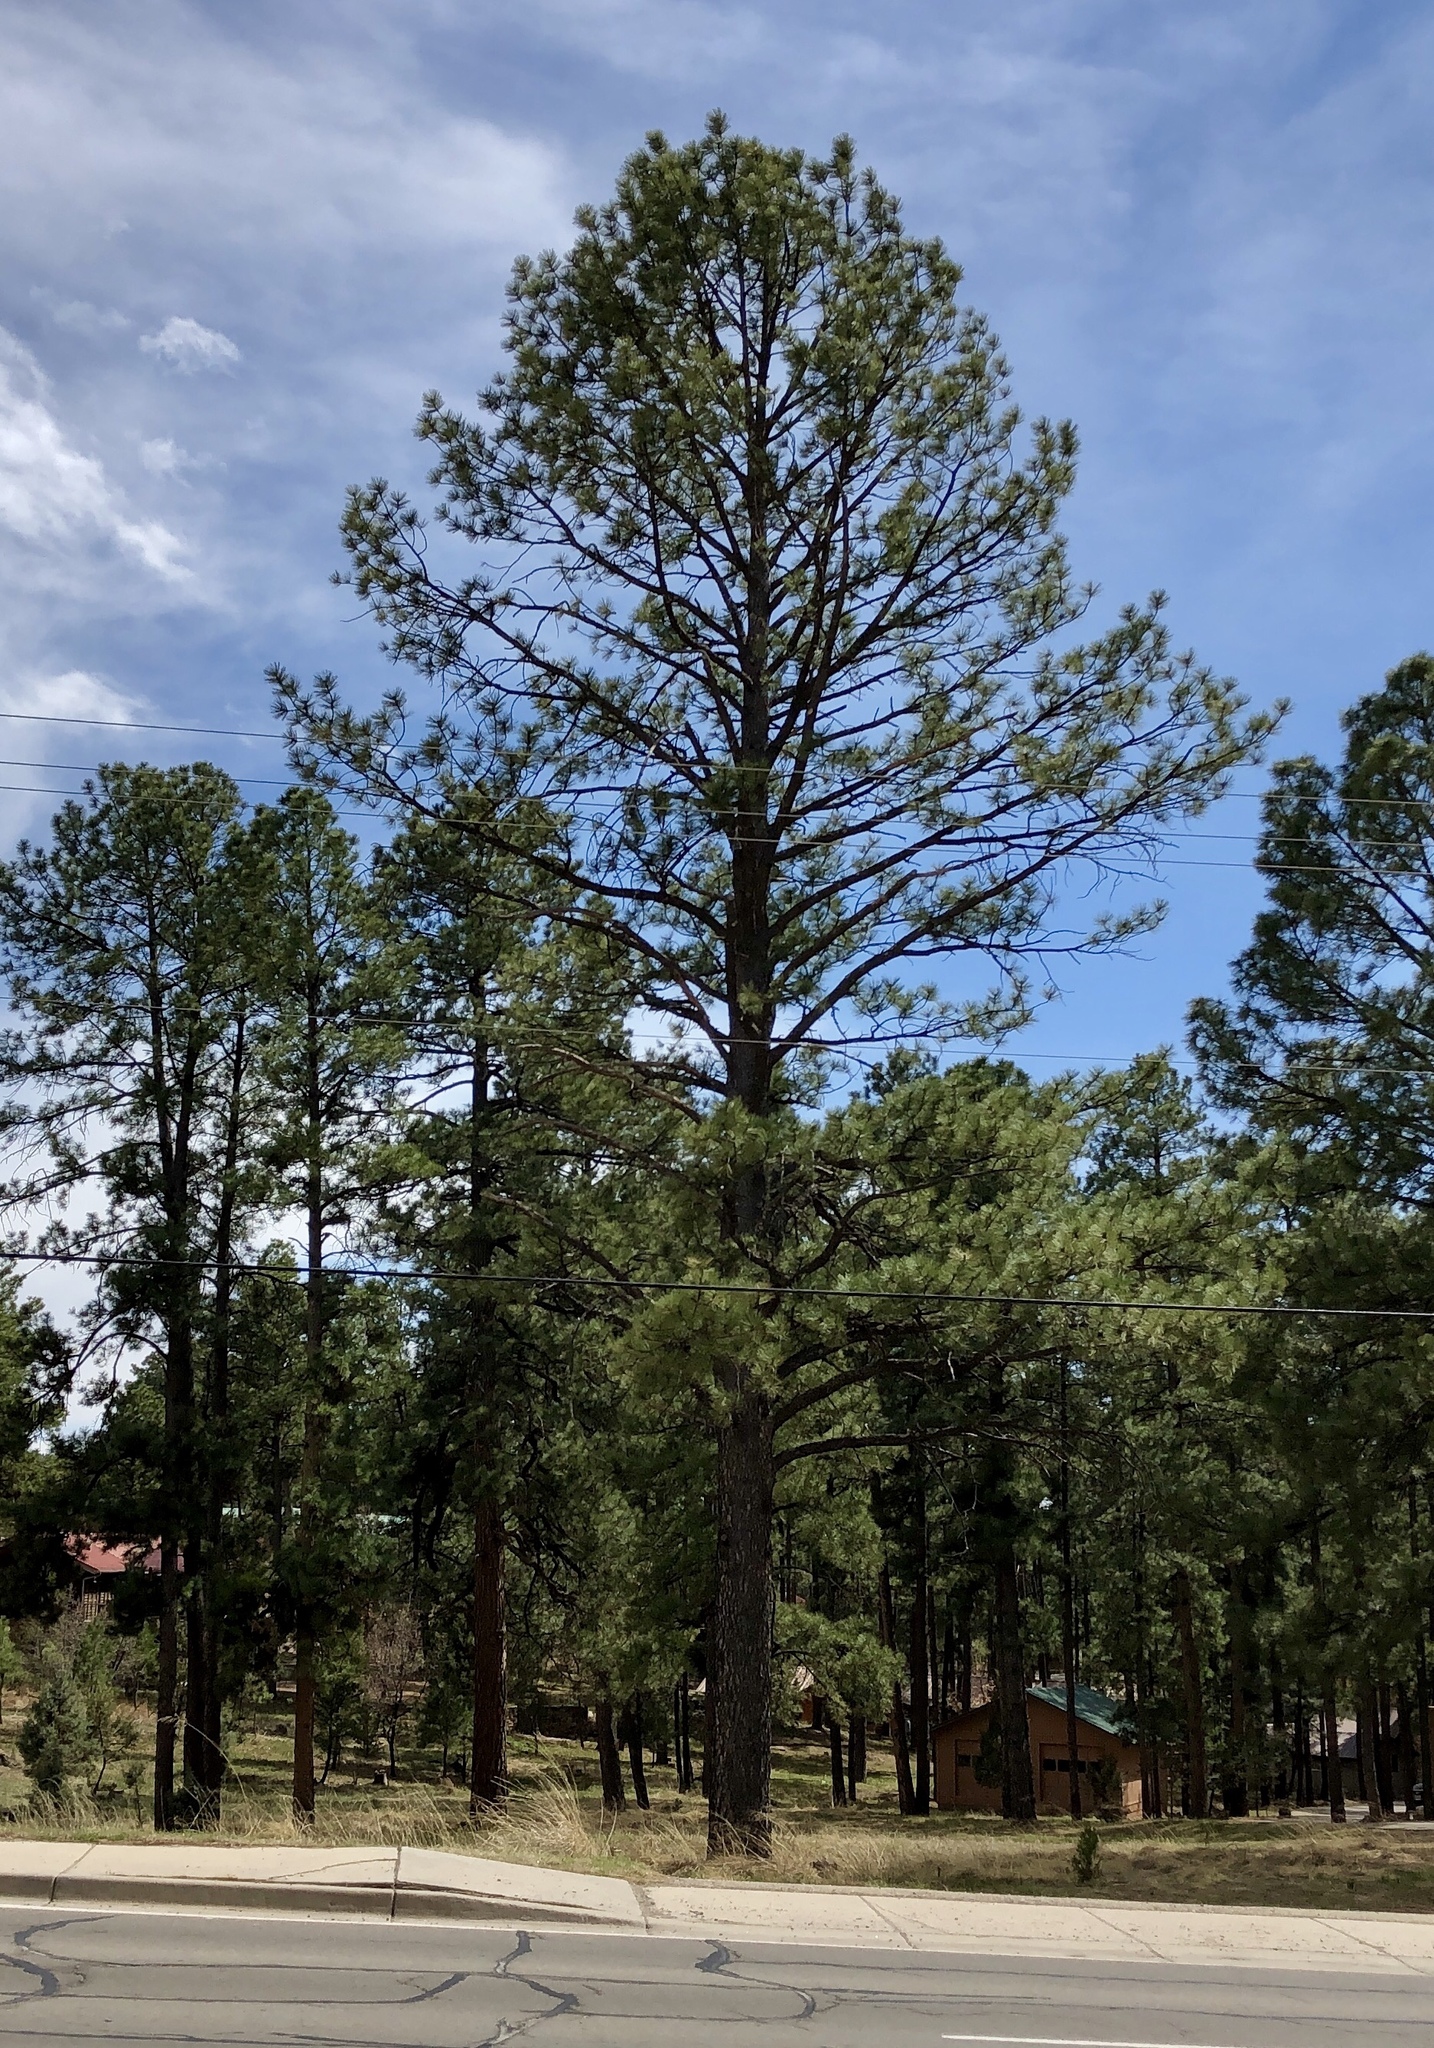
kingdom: Plantae
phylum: Tracheophyta
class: Pinopsida
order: Pinales
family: Pinaceae
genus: Pinus
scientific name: Pinus ponderosa
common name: Western yellow-pine
